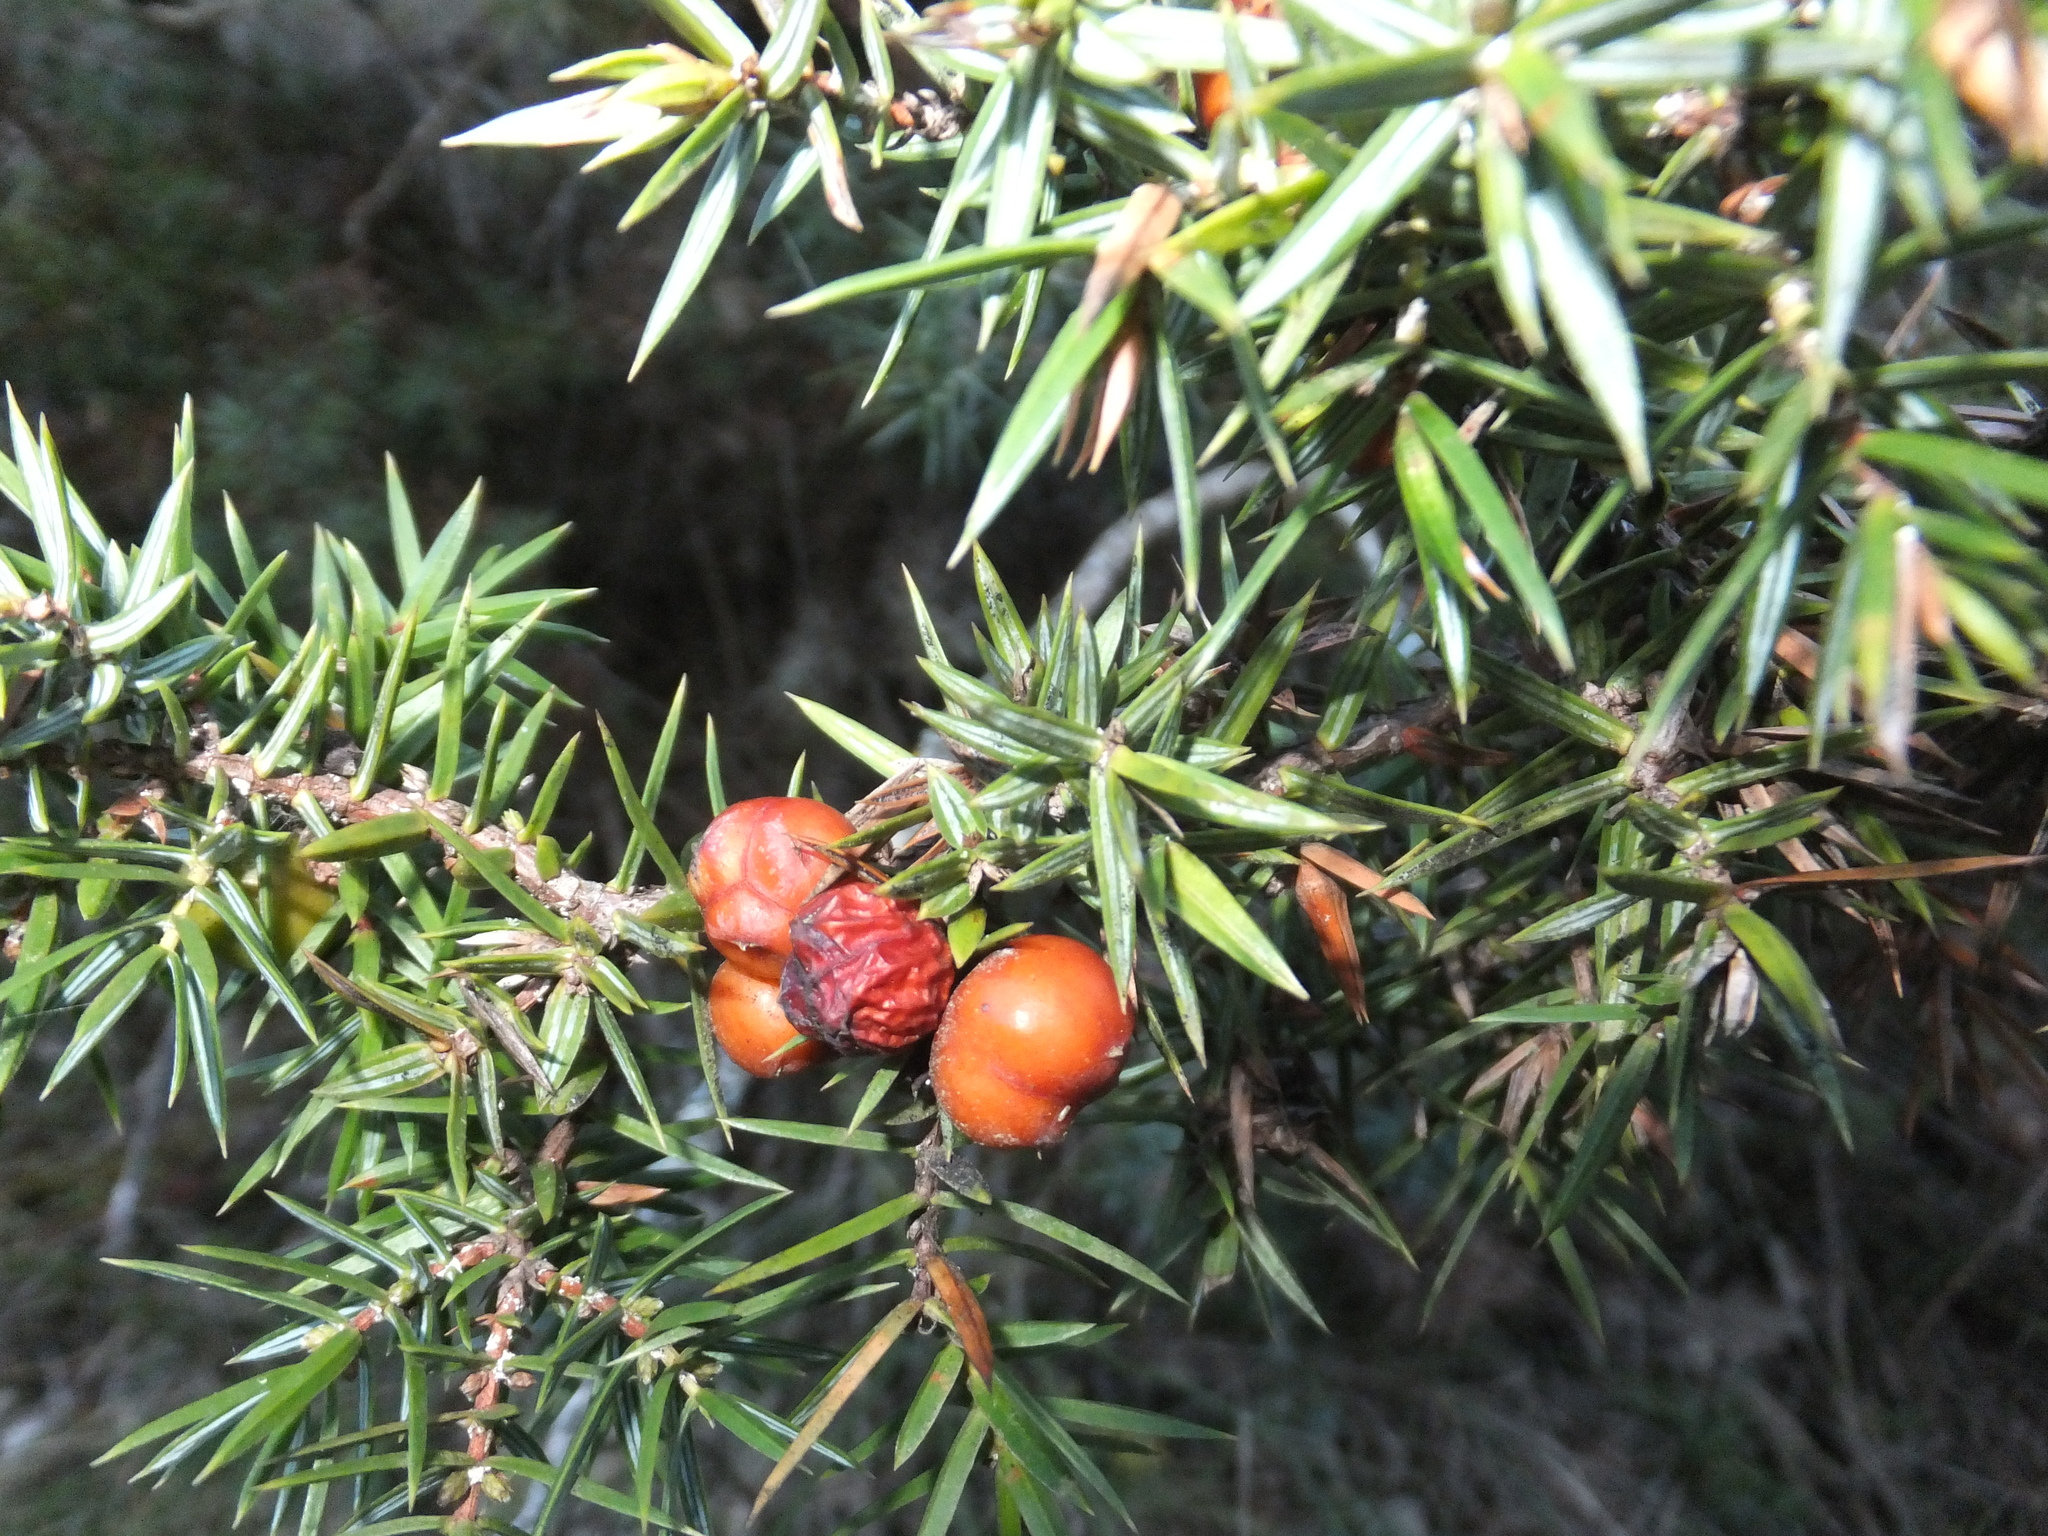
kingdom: Plantae
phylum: Tracheophyta
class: Pinopsida
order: Pinales
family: Cupressaceae
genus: Juniperus
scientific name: Juniperus oxycedrus
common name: Prickly juniper
